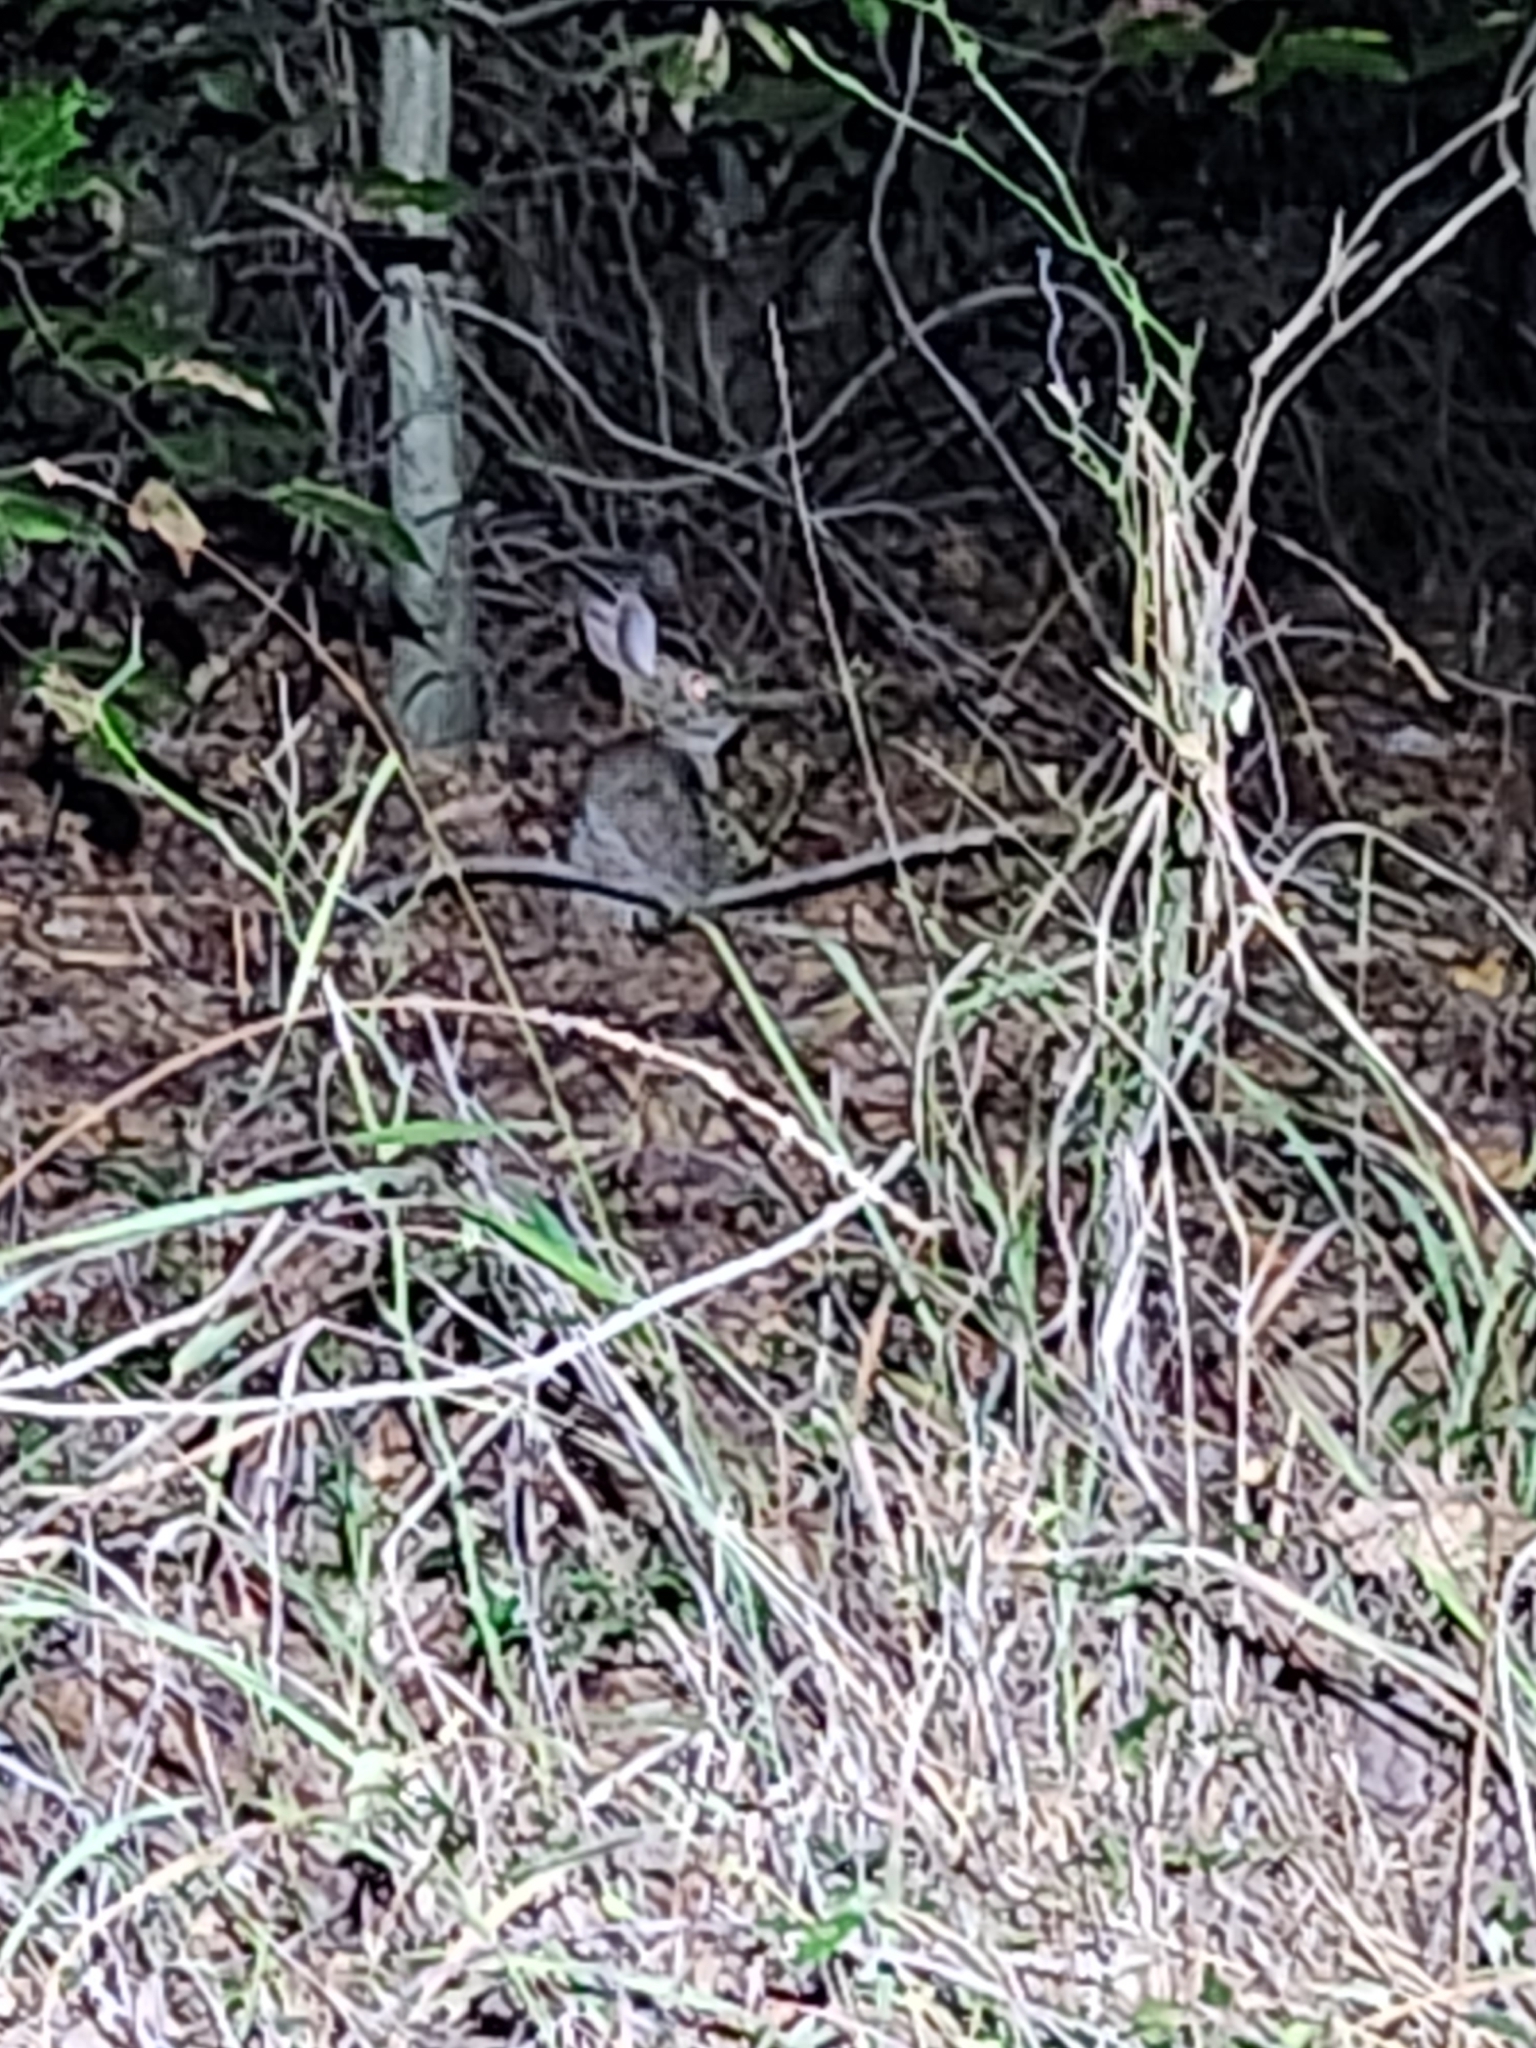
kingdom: Animalia
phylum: Chordata
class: Mammalia
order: Lagomorpha
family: Leporidae
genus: Sylvilagus
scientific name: Sylvilagus floridanus
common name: Eastern cottontail
